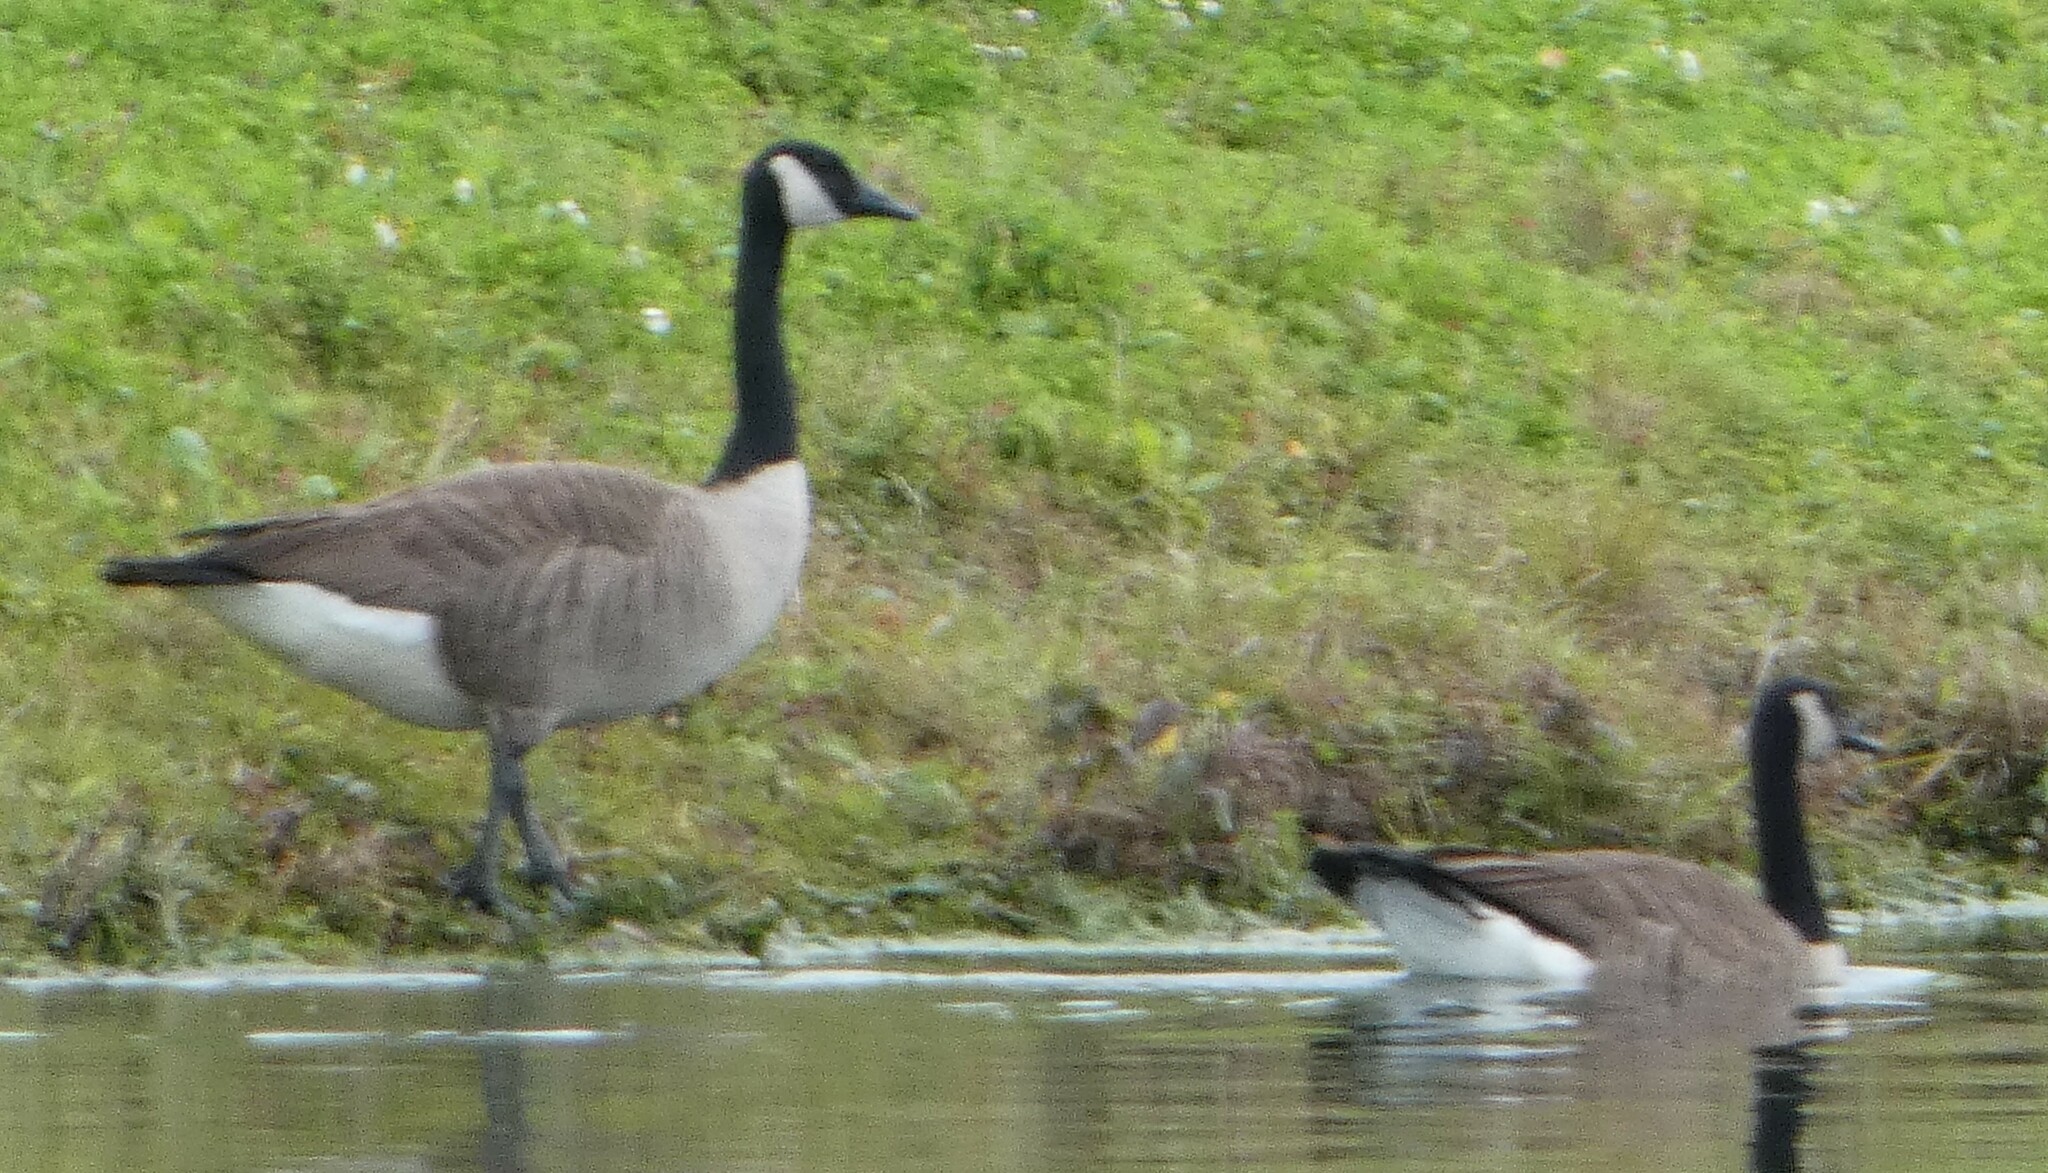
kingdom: Animalia
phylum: Chordata
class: Aves
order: Anseriformes
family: Anatidae
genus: Branta
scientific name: Branta canadensis
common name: Canada goose
